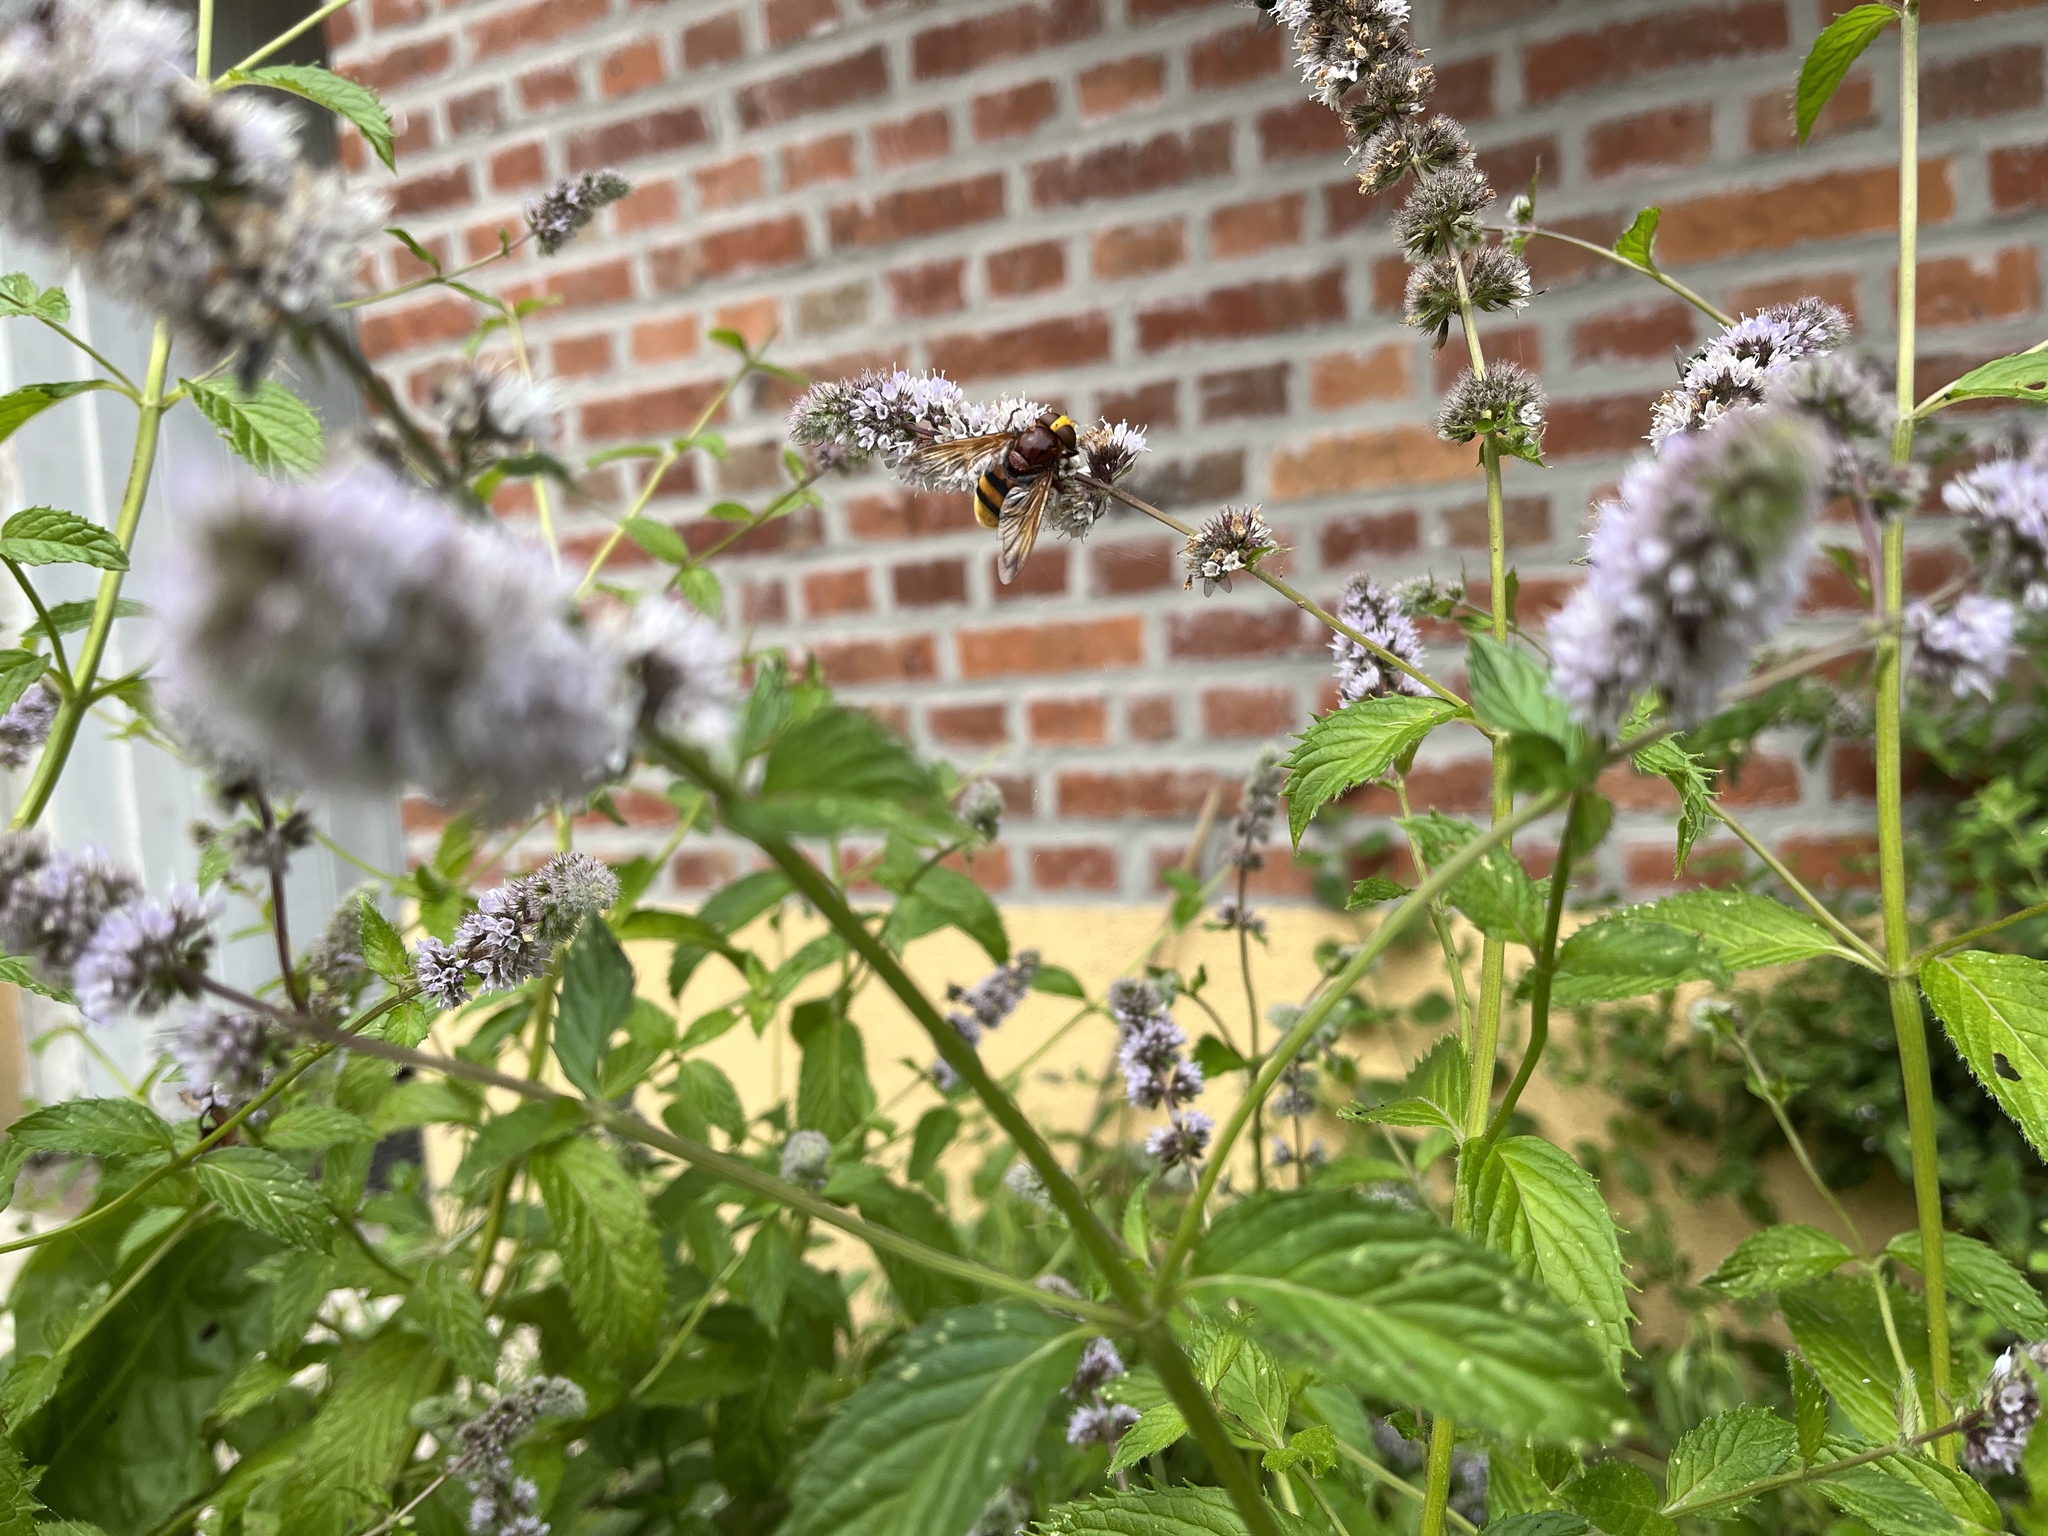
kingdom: Animalia
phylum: Arthropoda
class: Insecta
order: Diptera
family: Syrphidae
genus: Volucella
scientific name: Volucella zonaria
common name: Hornet hoverfly
